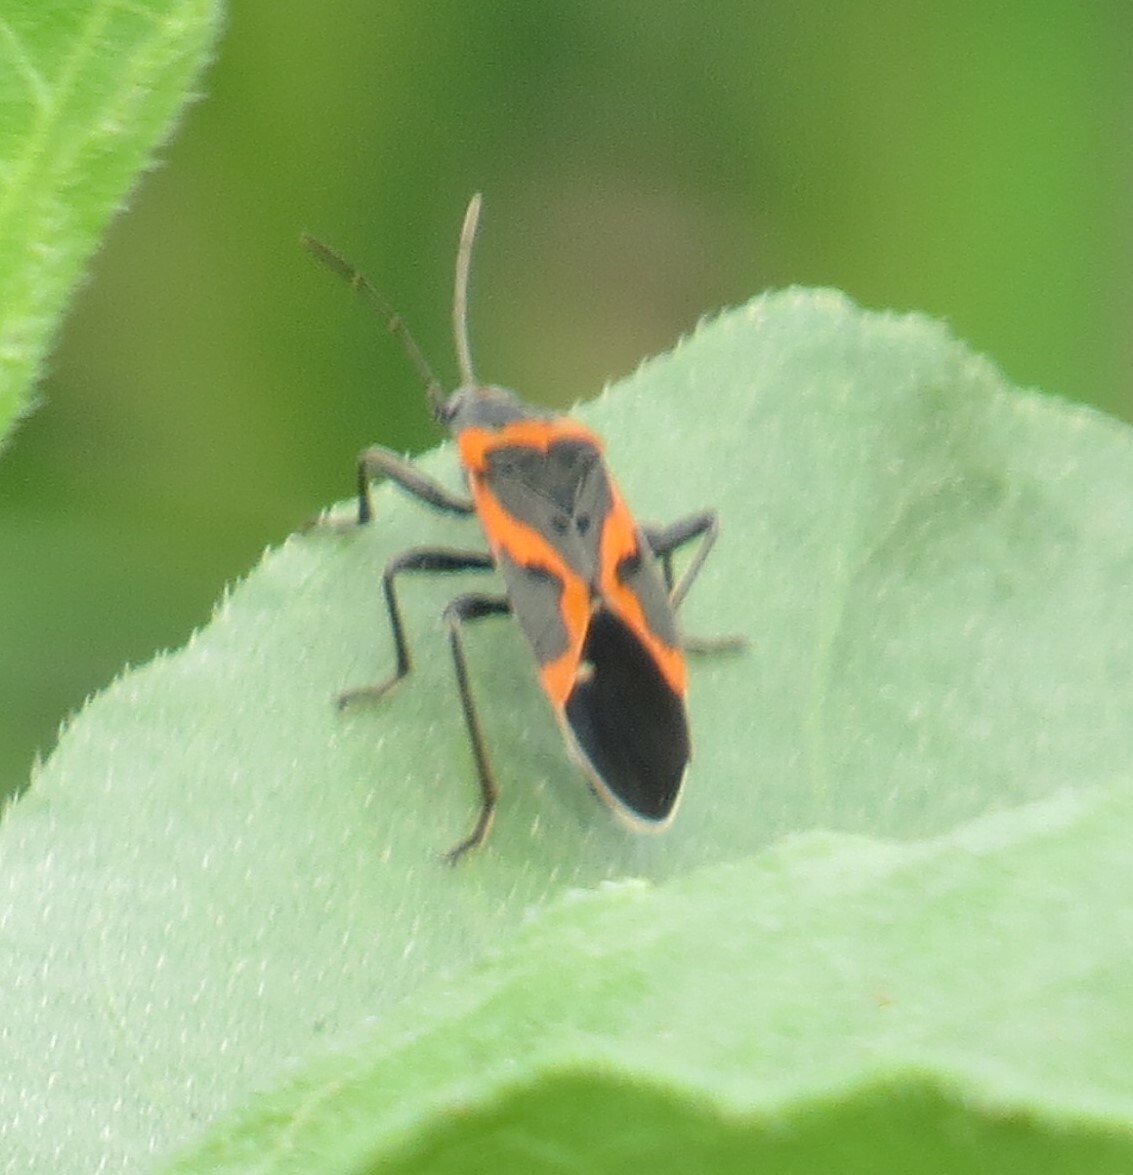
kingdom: Animalia
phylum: Arthropoda
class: Insecta
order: Hemiptera
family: Lygaeidae
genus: Lygaeus
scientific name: Lygaeus kalmii
